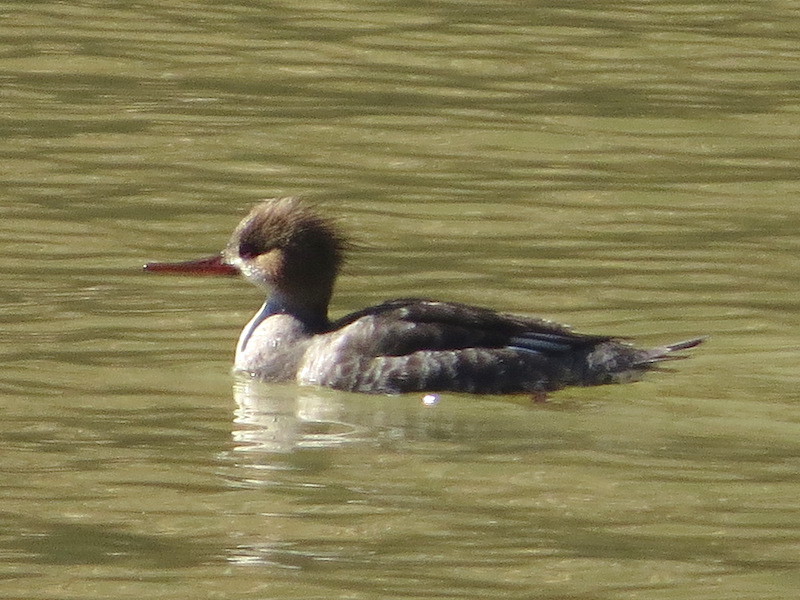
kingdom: Animalia
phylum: Chordata
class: Aves
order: Anseriformes
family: Anatidae
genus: Mergus
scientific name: Mergus serrator
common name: Red-breasted merganser
